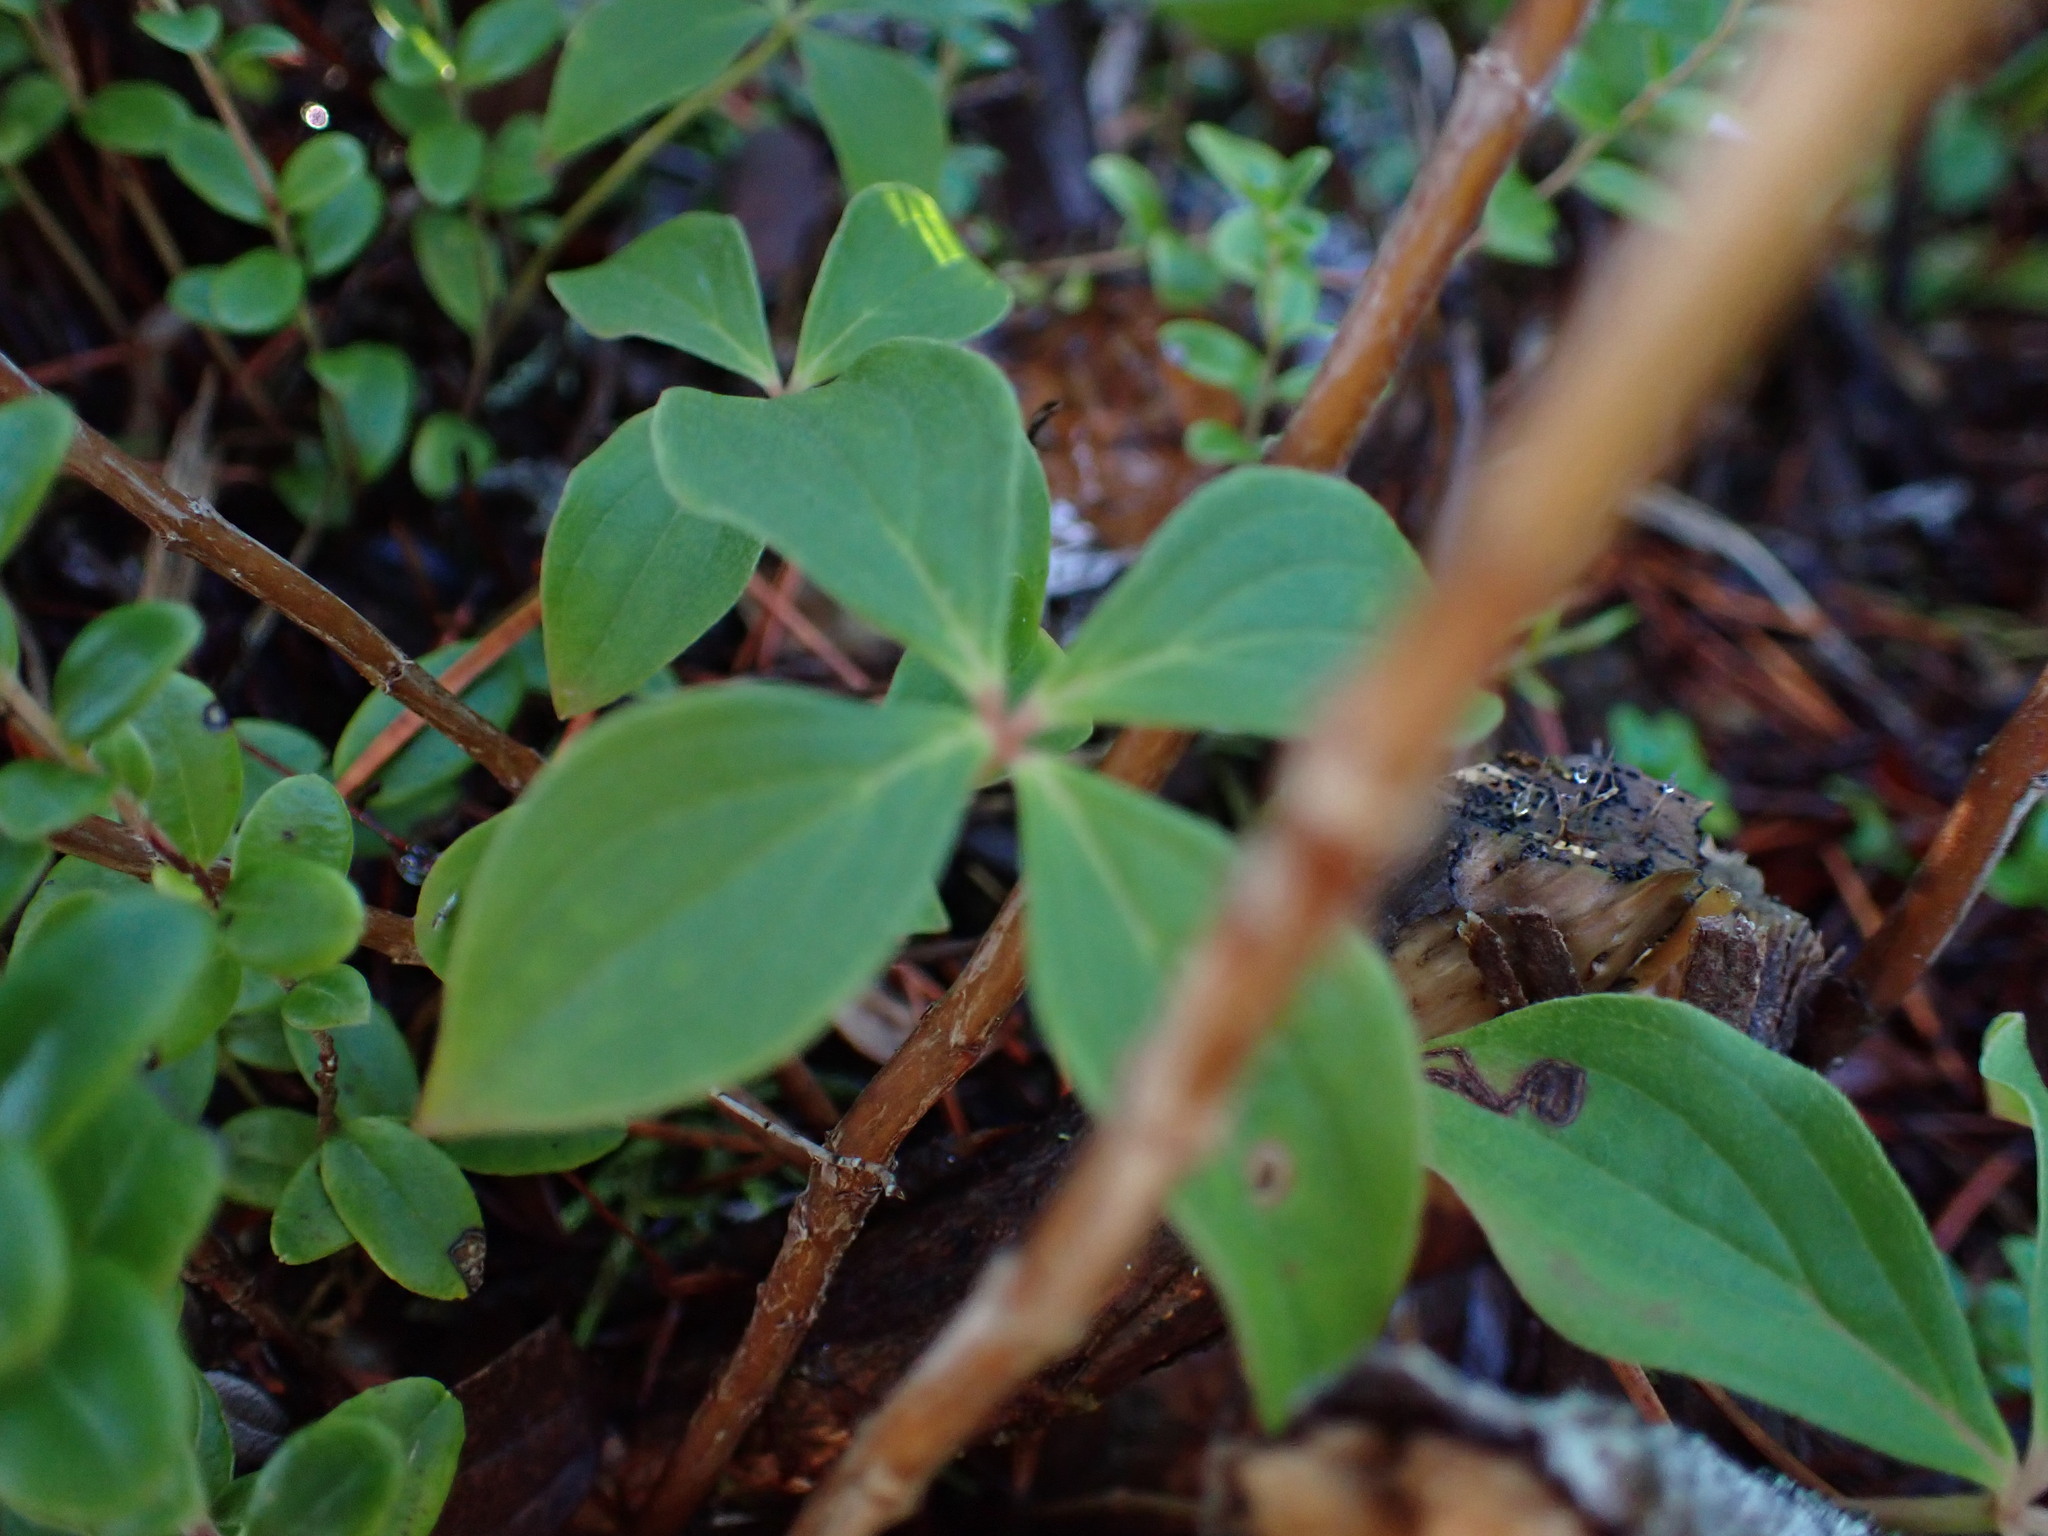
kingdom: Plantae
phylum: Tracheophyta
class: Magnoliopsida
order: Cornales
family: Cornaceae
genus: Cornus
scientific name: Cornus unalaschkensis
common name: Alaska bunchberry
